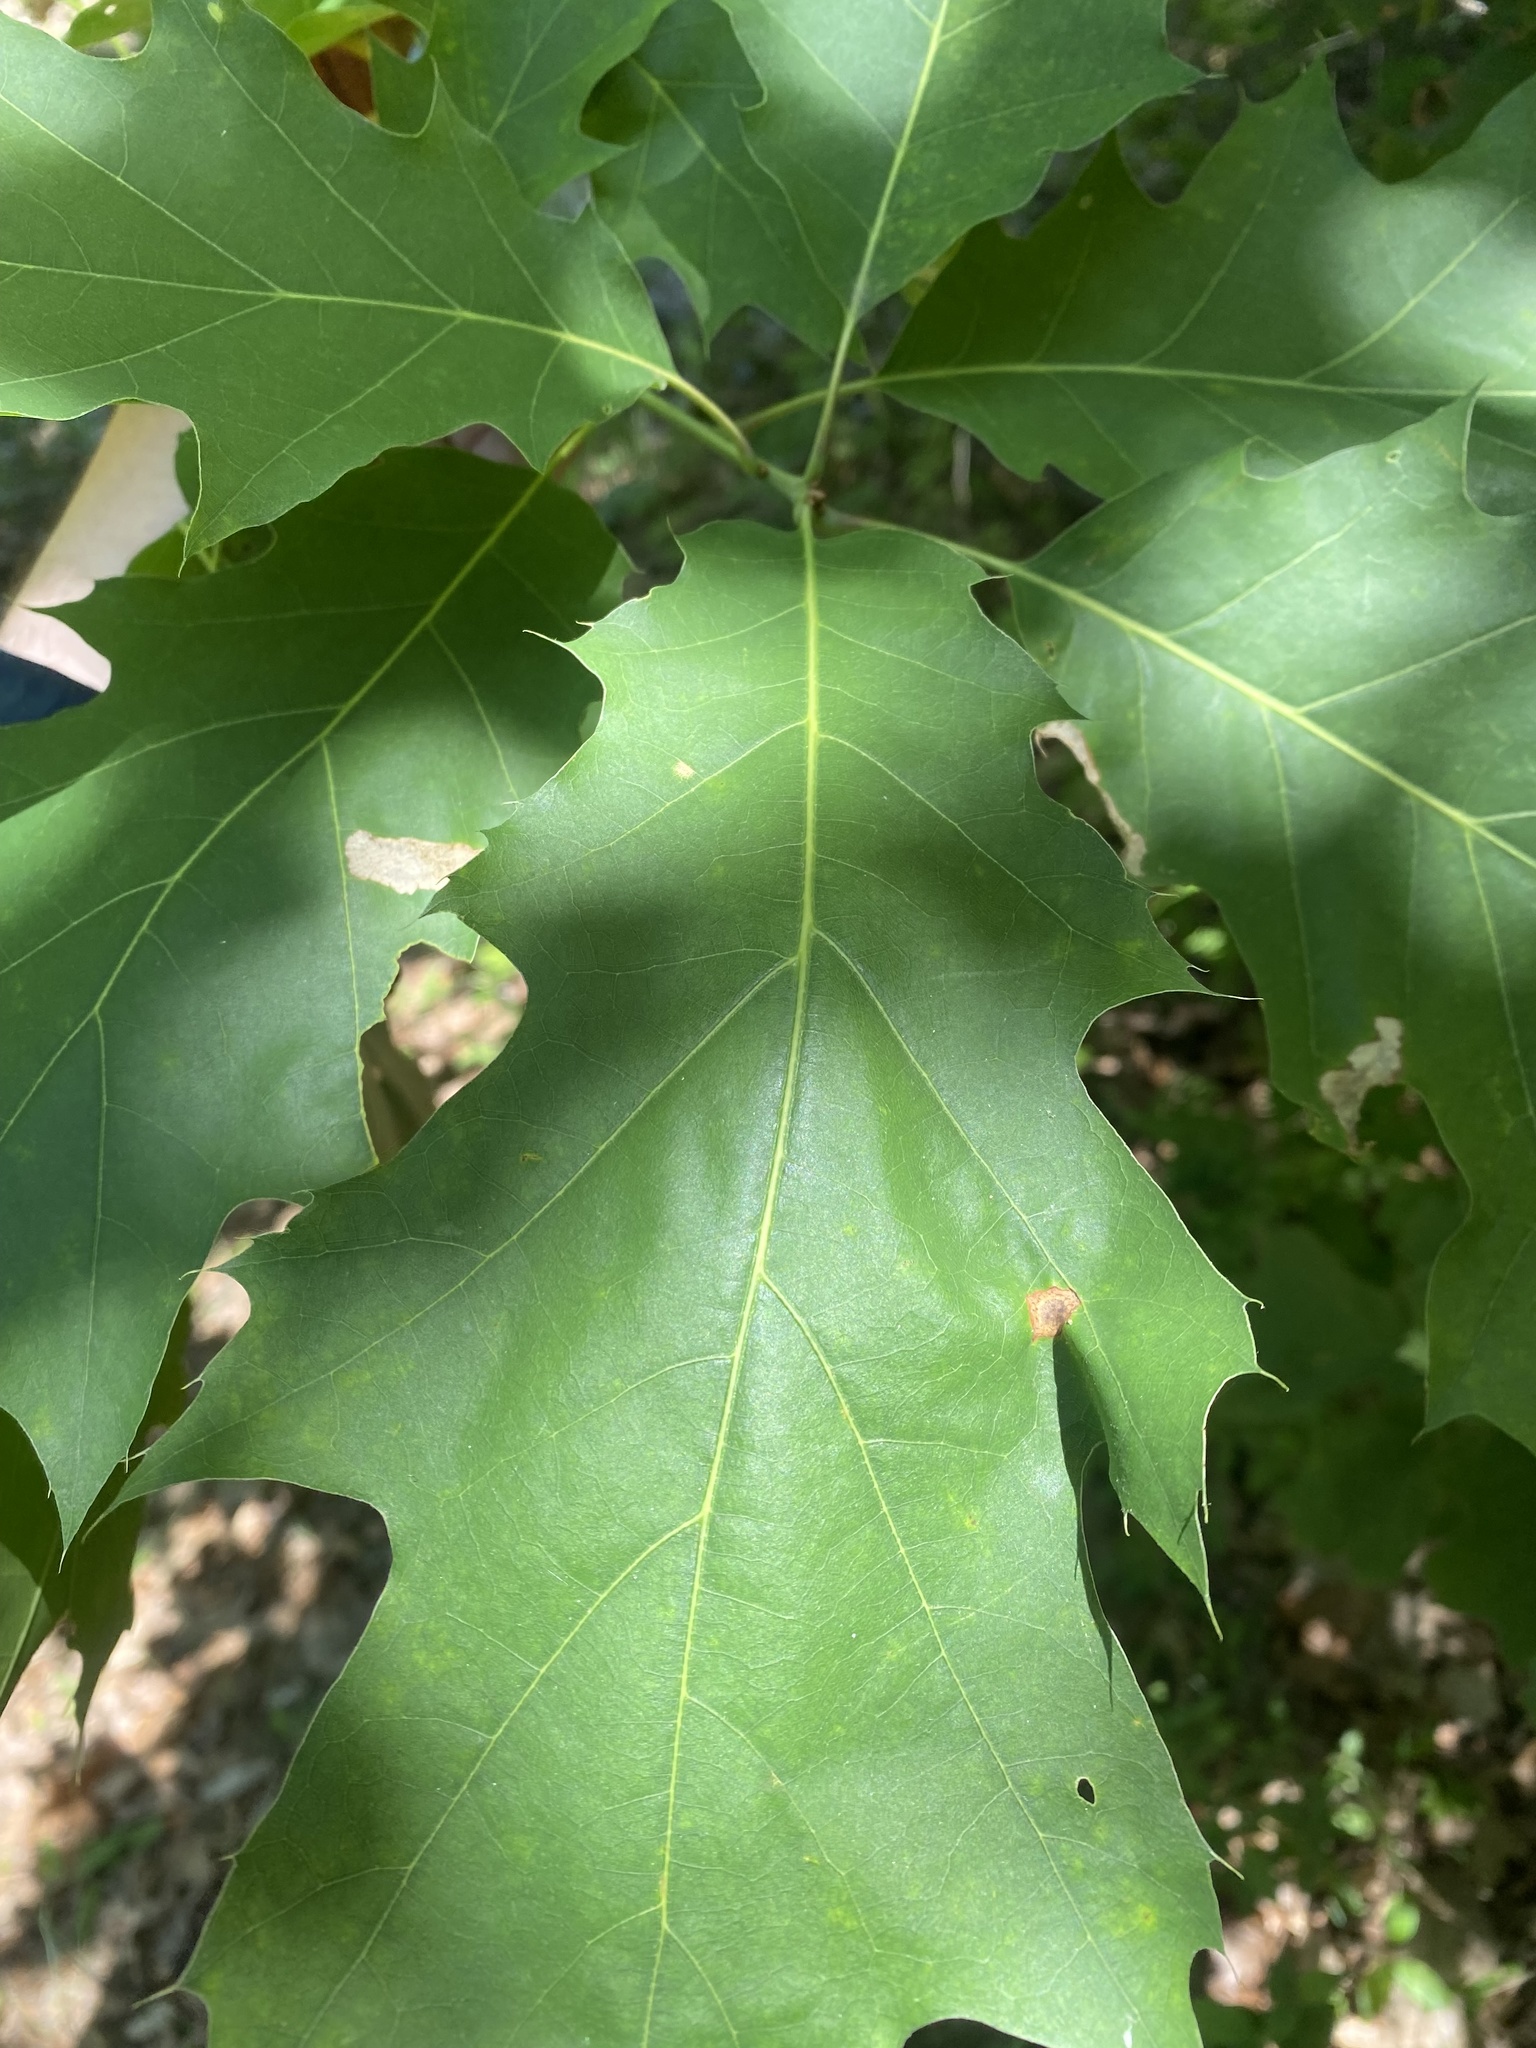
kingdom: Plantae
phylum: Tracheophyta
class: Magnoliopsida
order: Fagales
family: Fagaceae
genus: Quercus
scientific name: Quercus rubra
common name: Red oak
